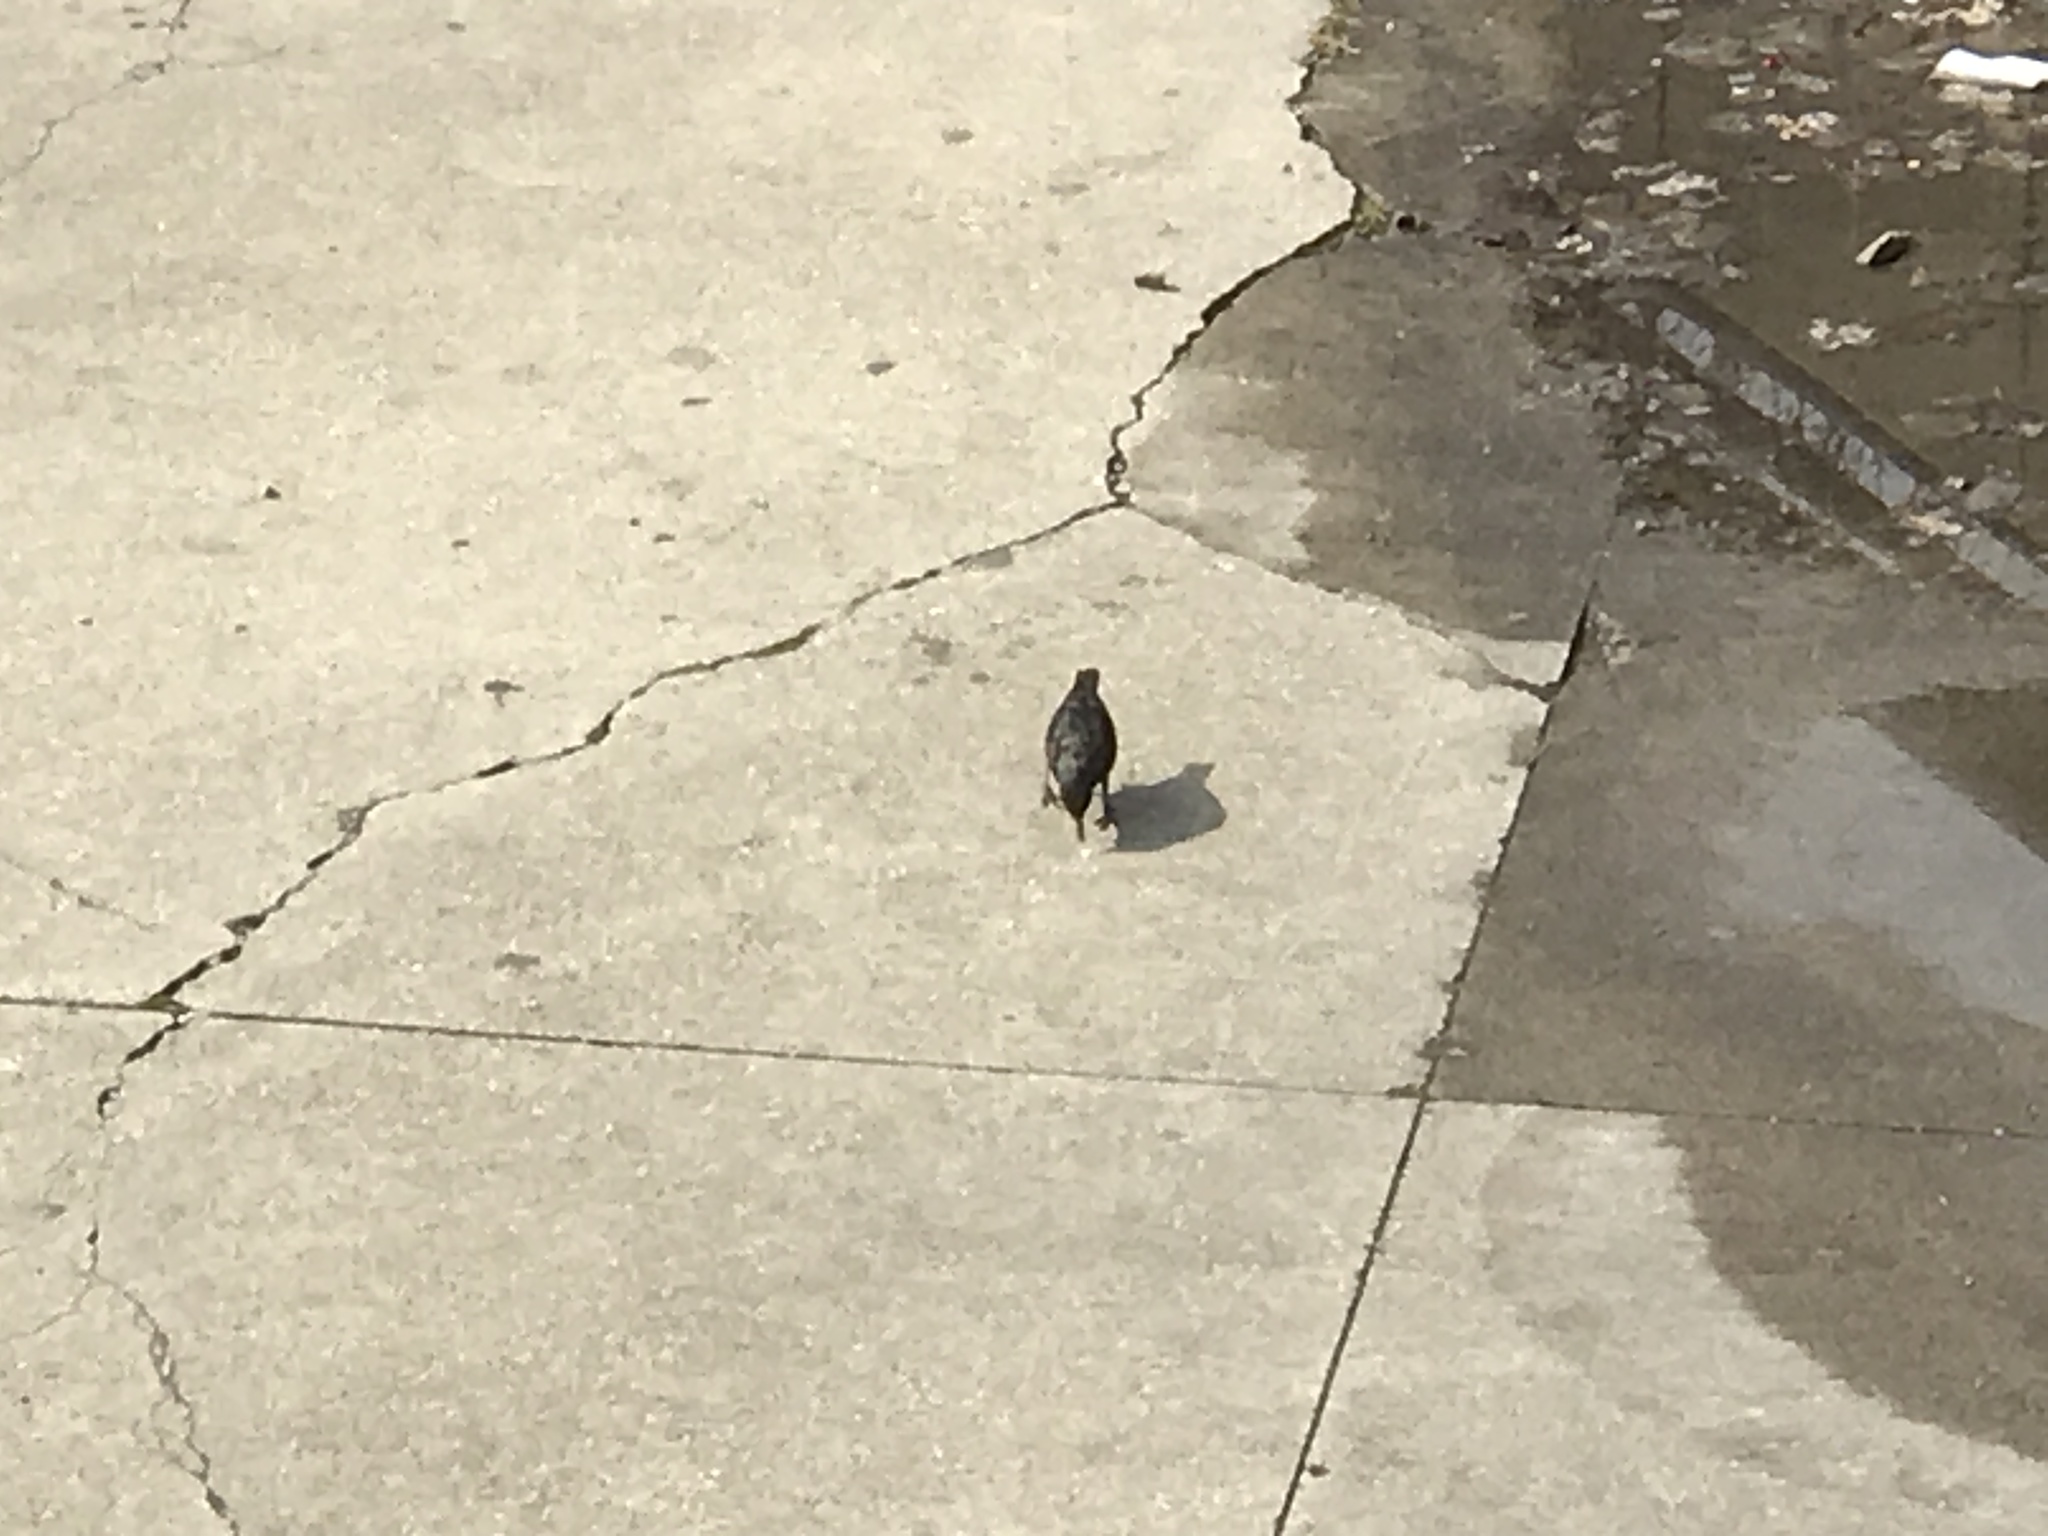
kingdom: Animalia
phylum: Chordata
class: Aves
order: Passeriformes
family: Sturnidae
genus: Sturnus
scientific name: Sturnus vulgaris
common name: Common starling
